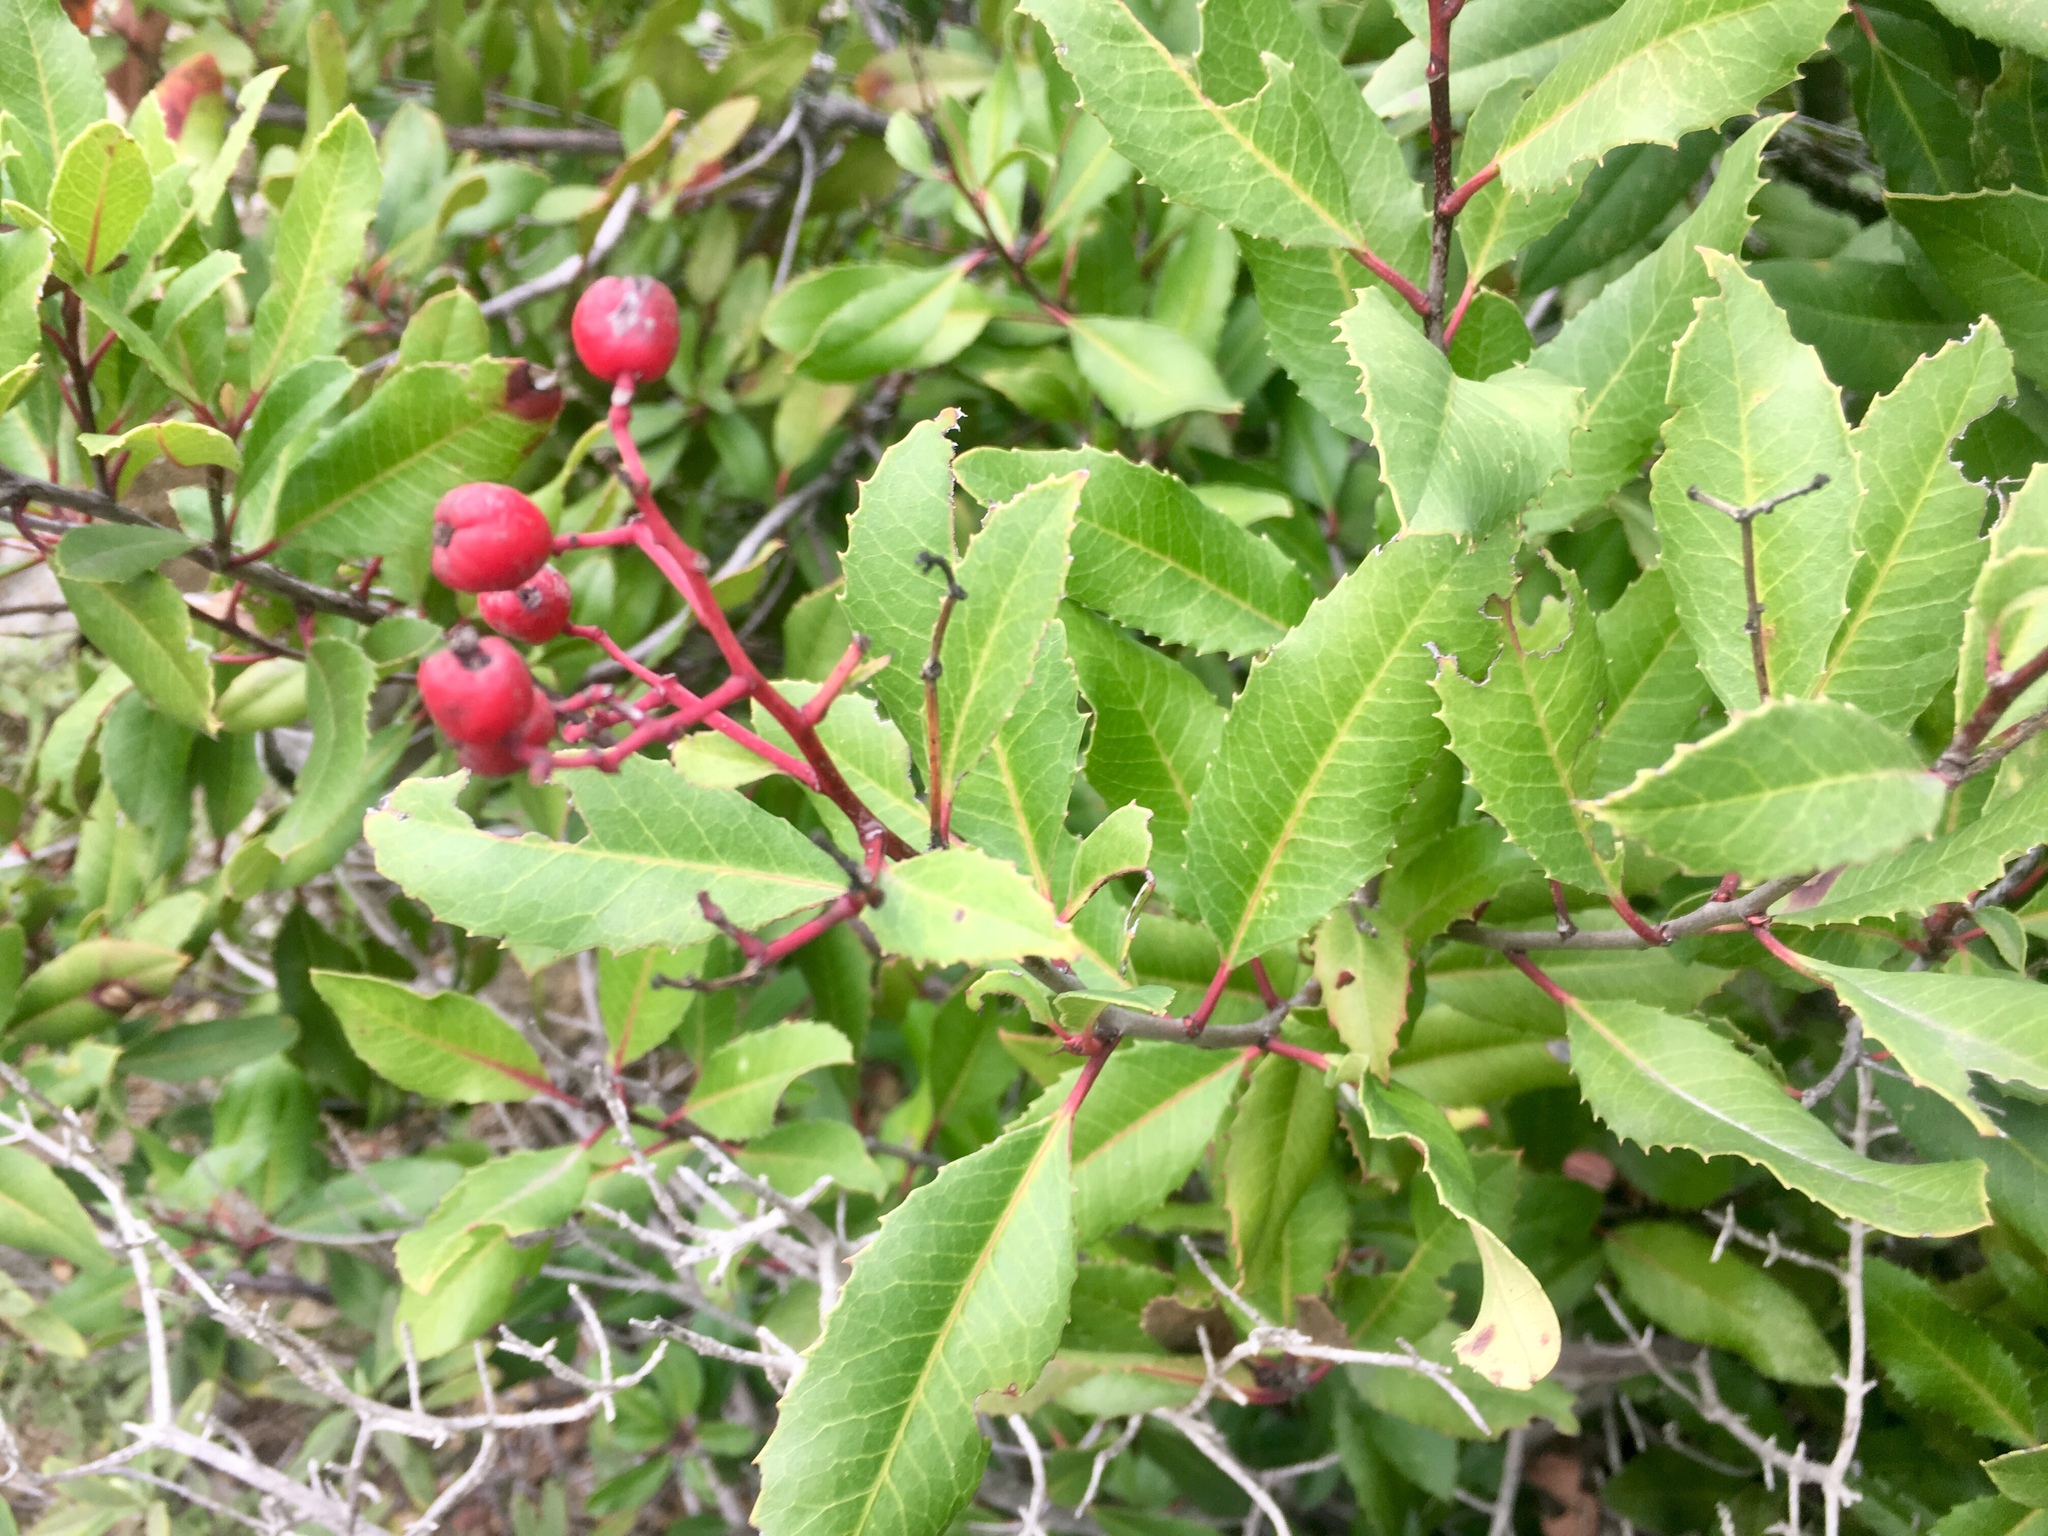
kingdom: Plantae
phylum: Tracheophyta
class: Magnoliopsida
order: Rosales
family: Rosaceae
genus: Heteromeles
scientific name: Heteromeles arbutifolia
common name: California-holly
